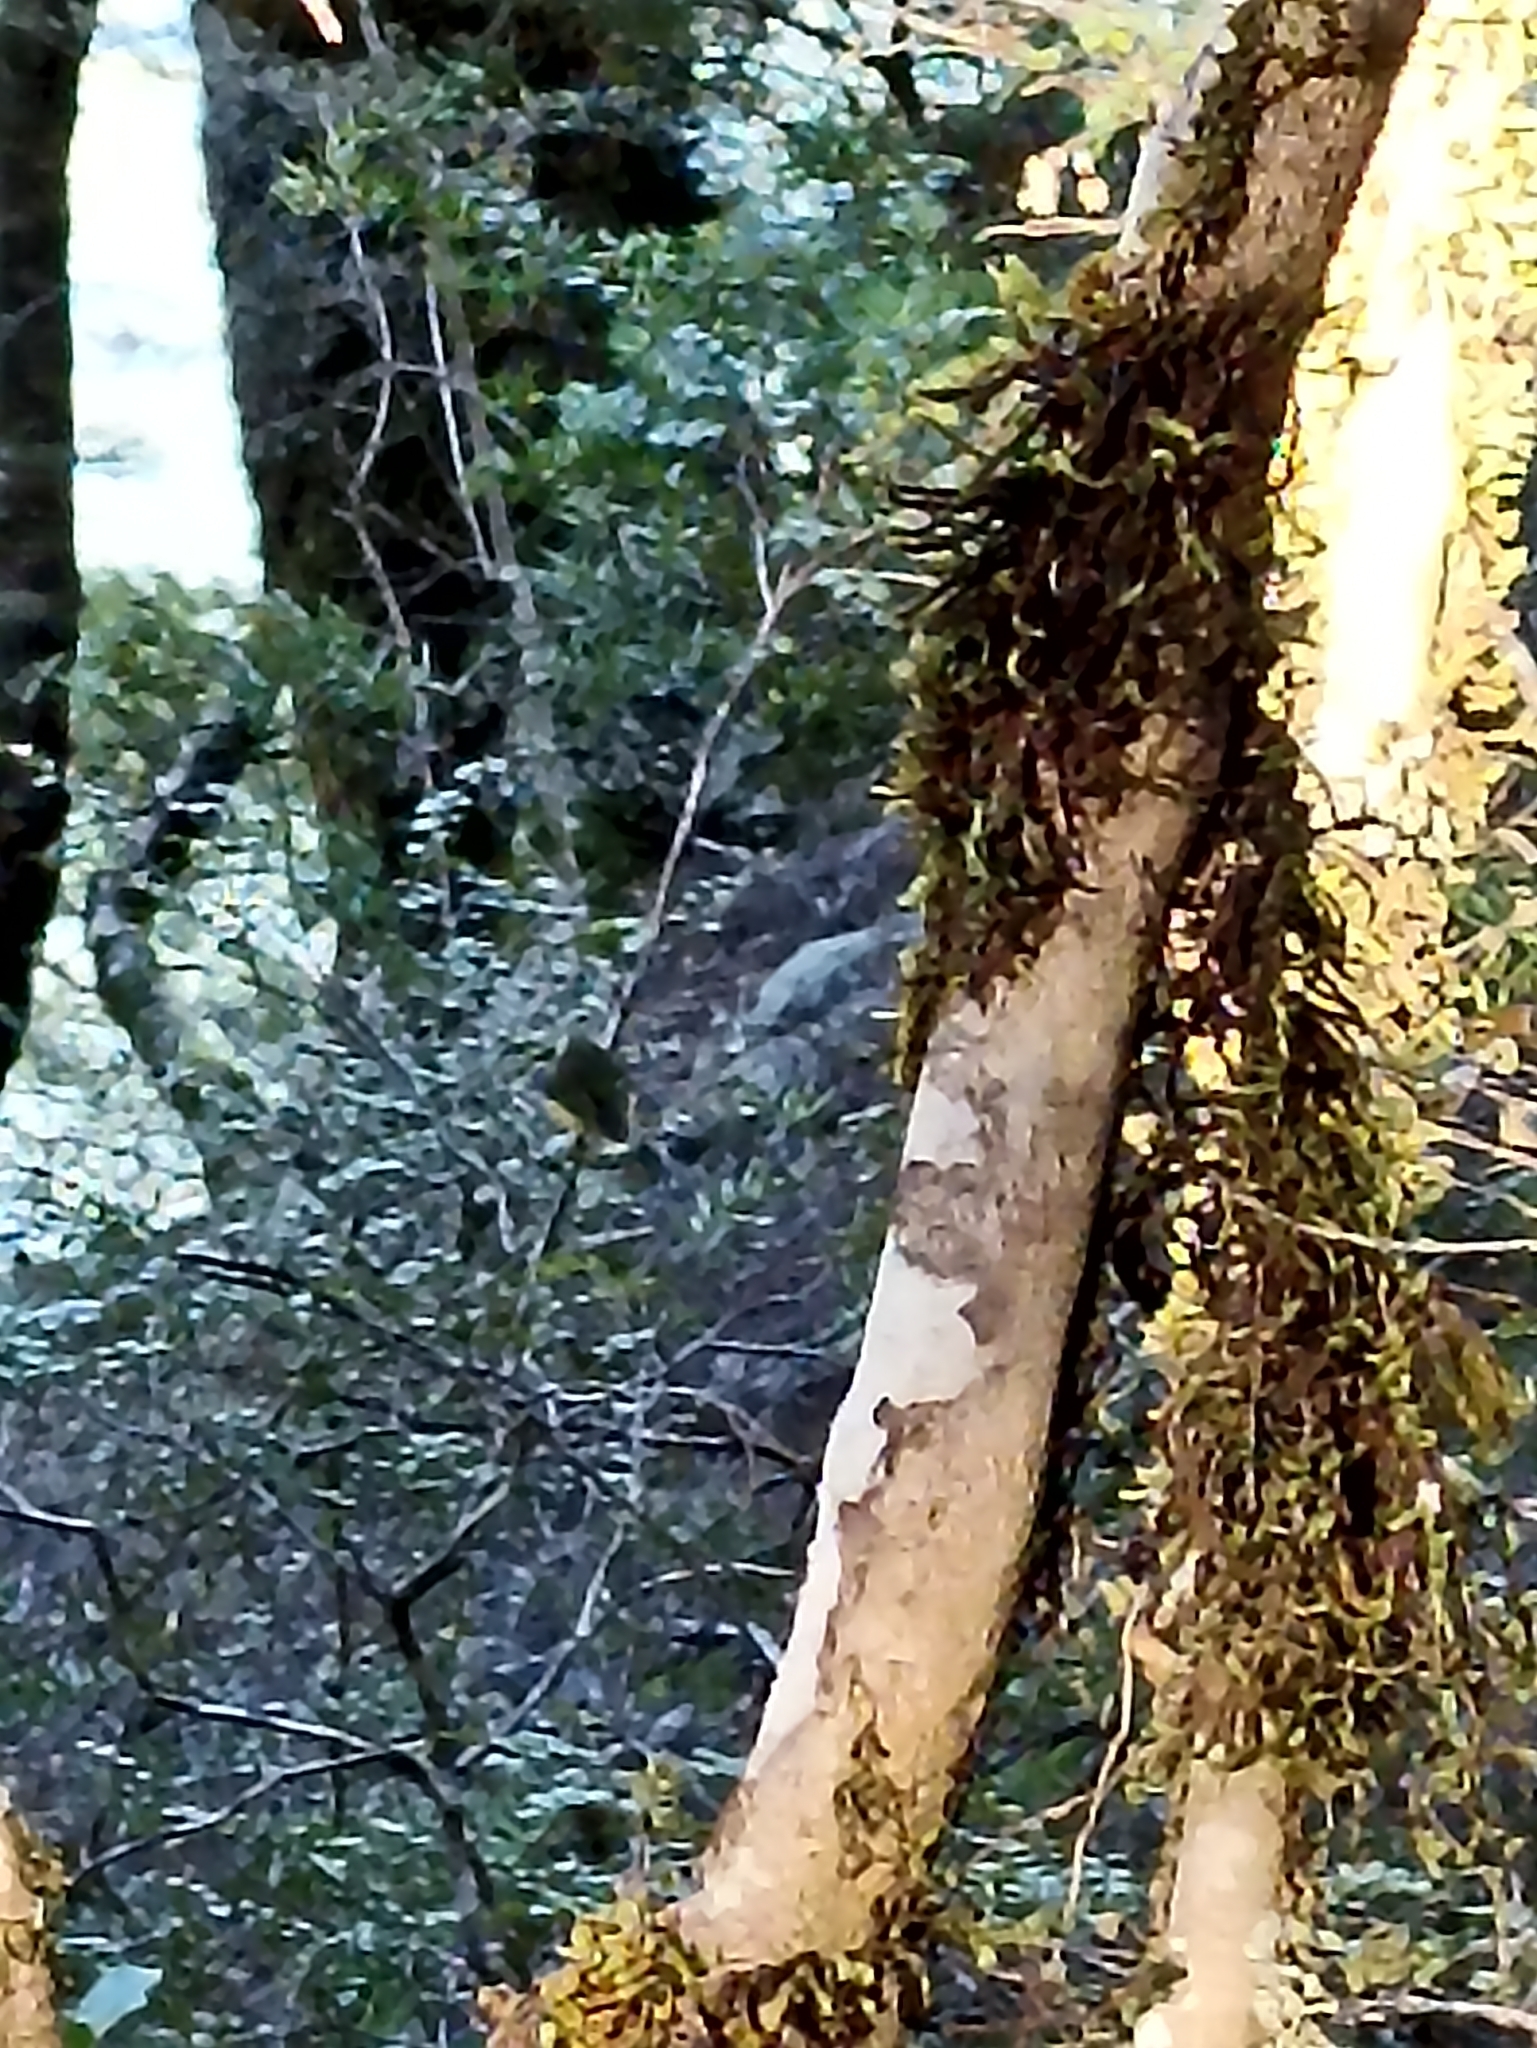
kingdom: Animalia
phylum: Chordata
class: Aves
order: Passeriformes
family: Acanthisittidae
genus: Acanthisitta
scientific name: Acanthisitta chloris
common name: Rifleman
